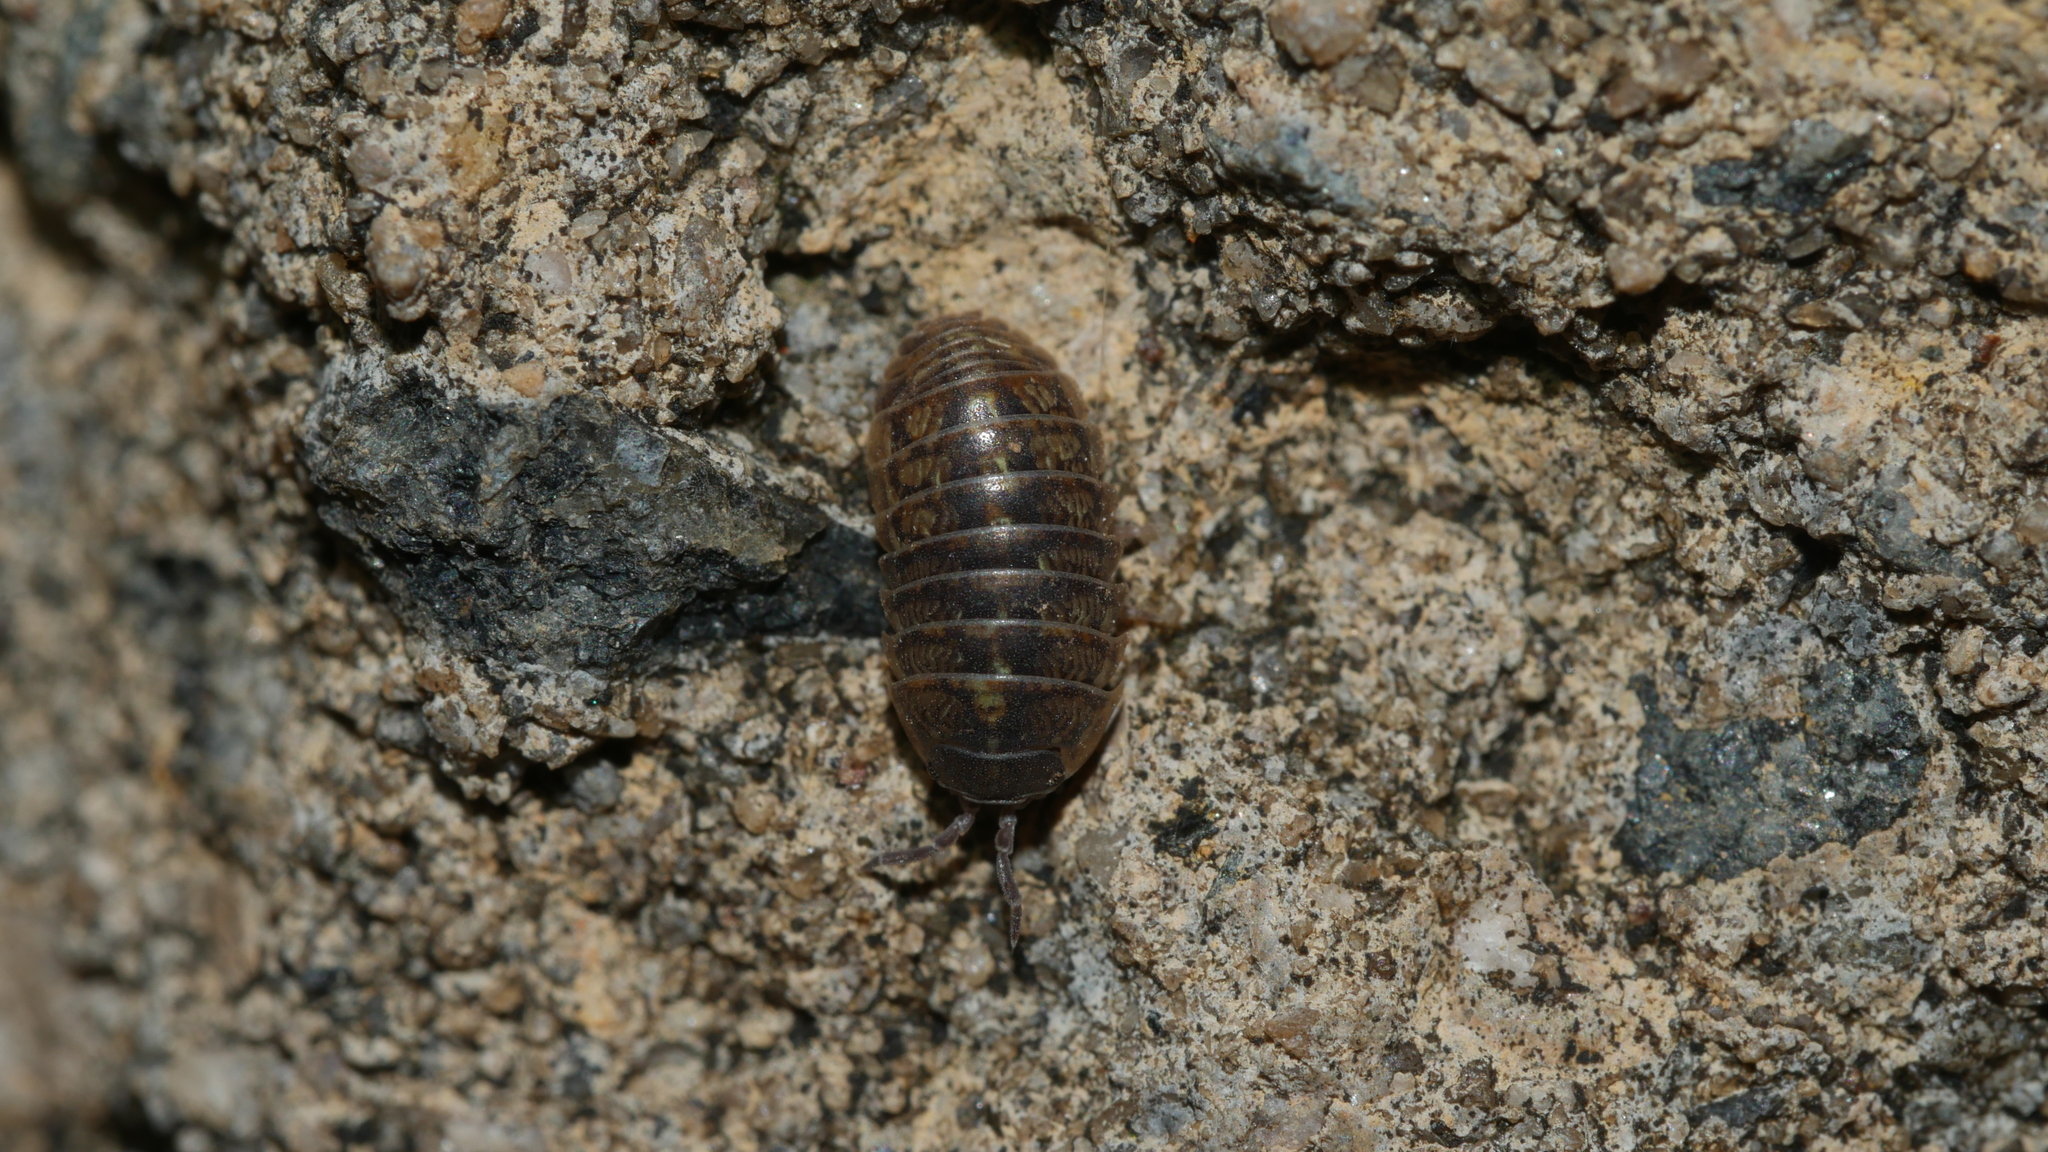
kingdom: Animalia
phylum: Arthropoda
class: Malacostraca
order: Isopoda
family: Armadillidiidae
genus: Armadillidium
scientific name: Armadillidium vulgare
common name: Common pill woodlouse
